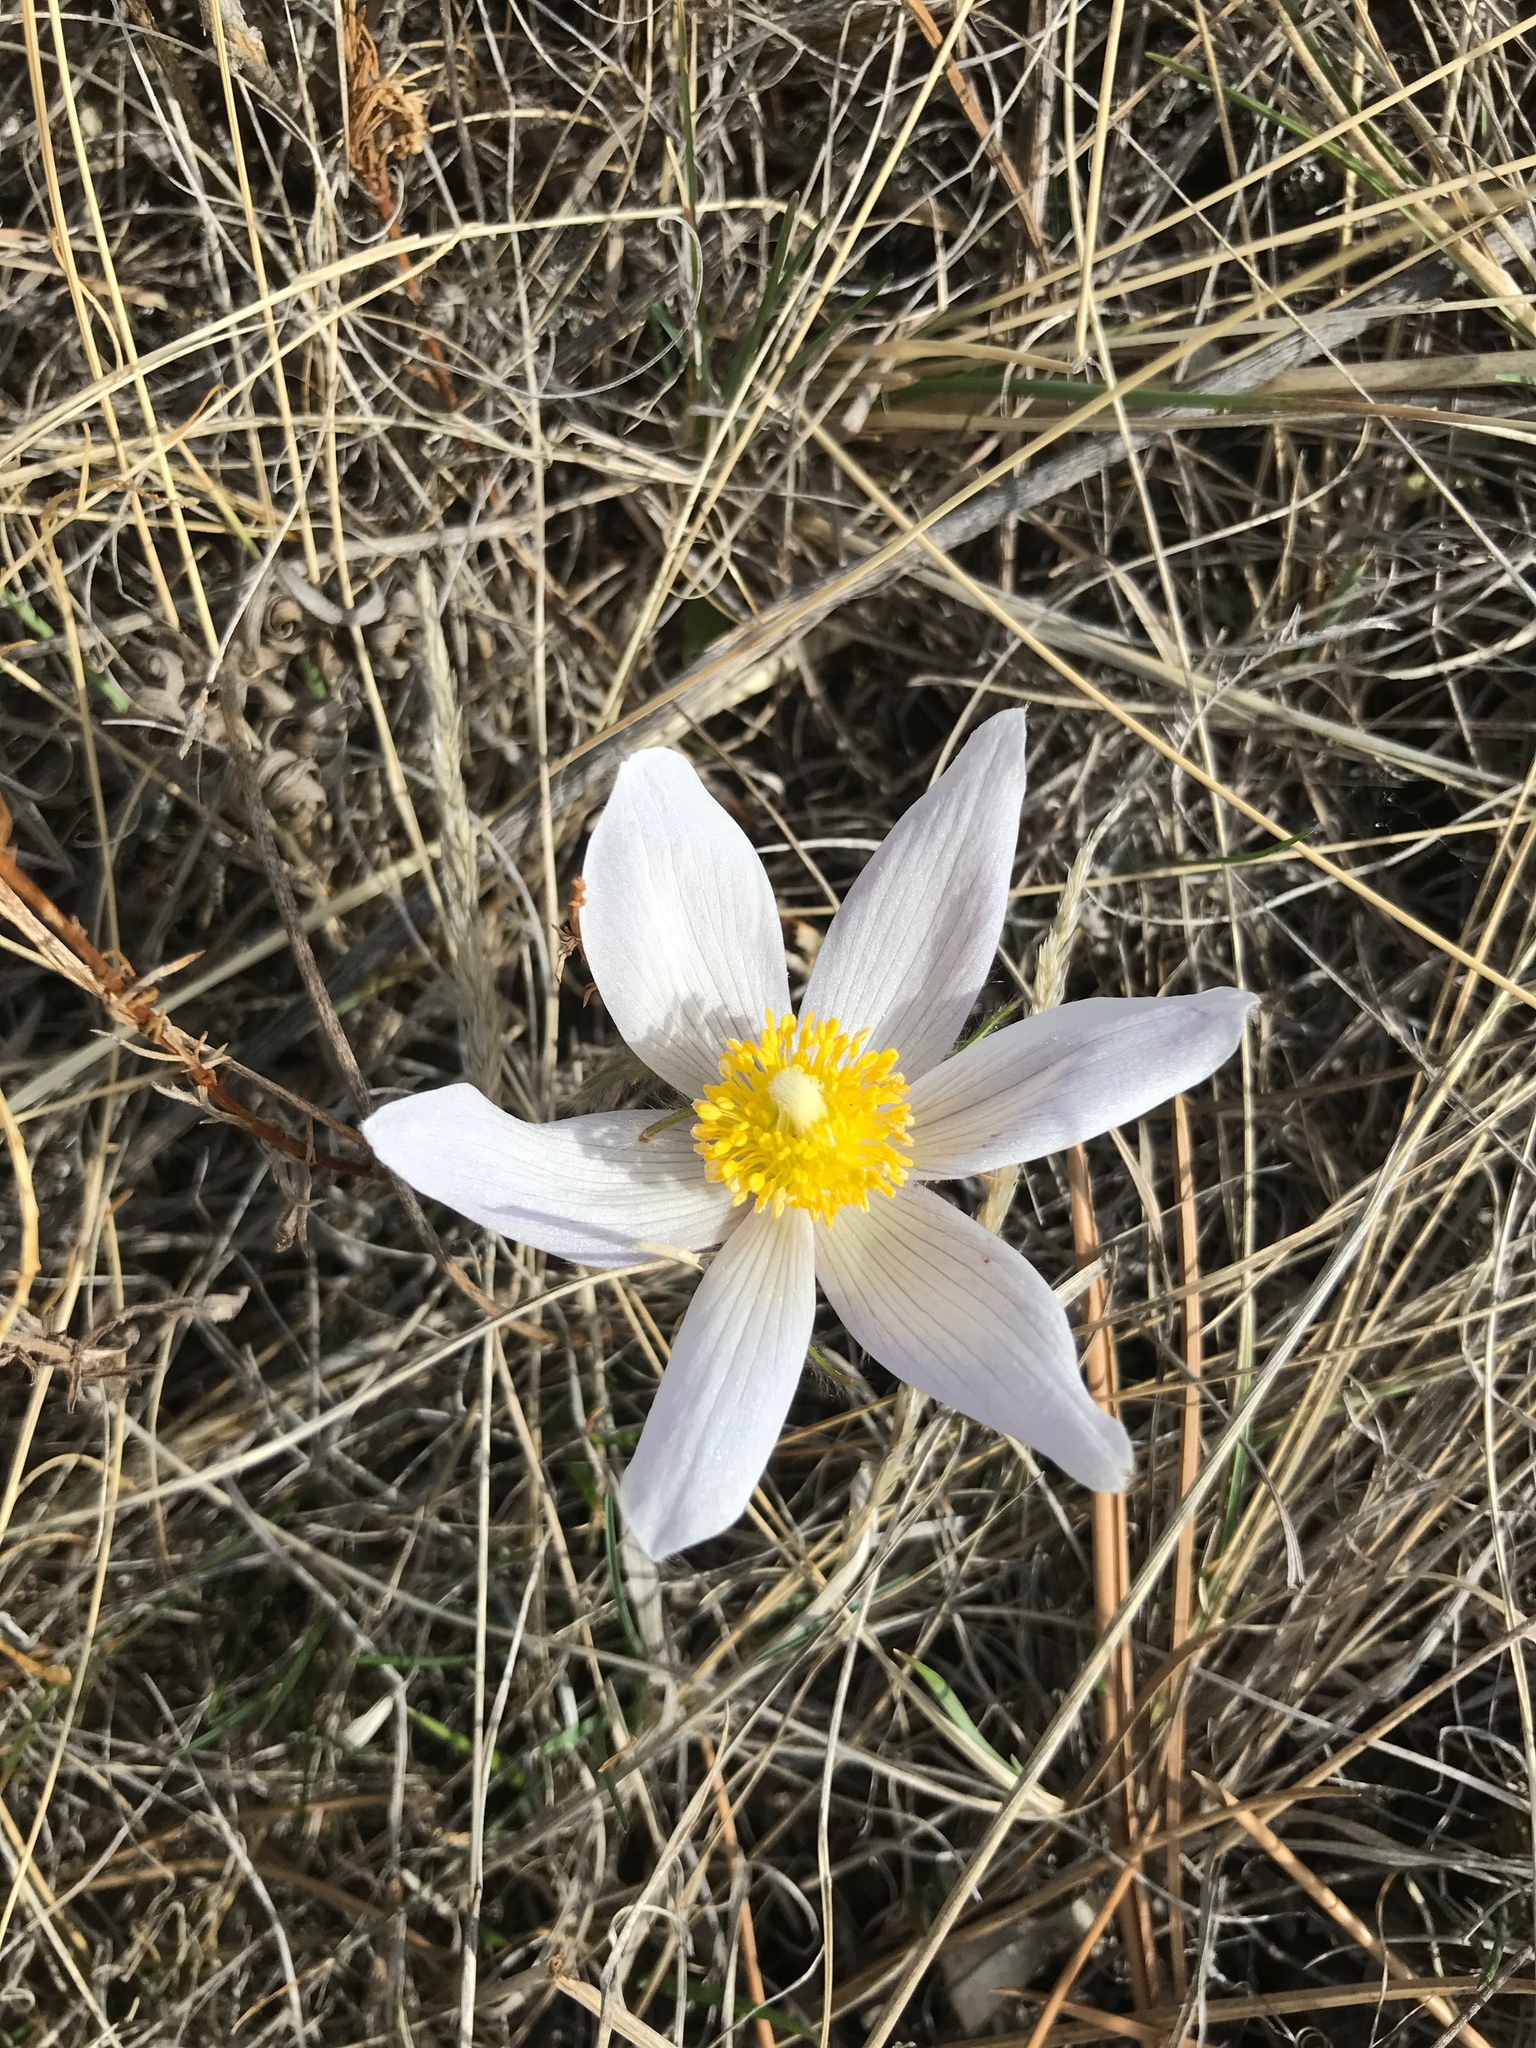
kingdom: Plantae
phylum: Tracheophyta
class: Magnoliopsida
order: Ranunculales
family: Ranunculaceae
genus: Pulsatilla
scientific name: Pulsatilla nuttalliana
